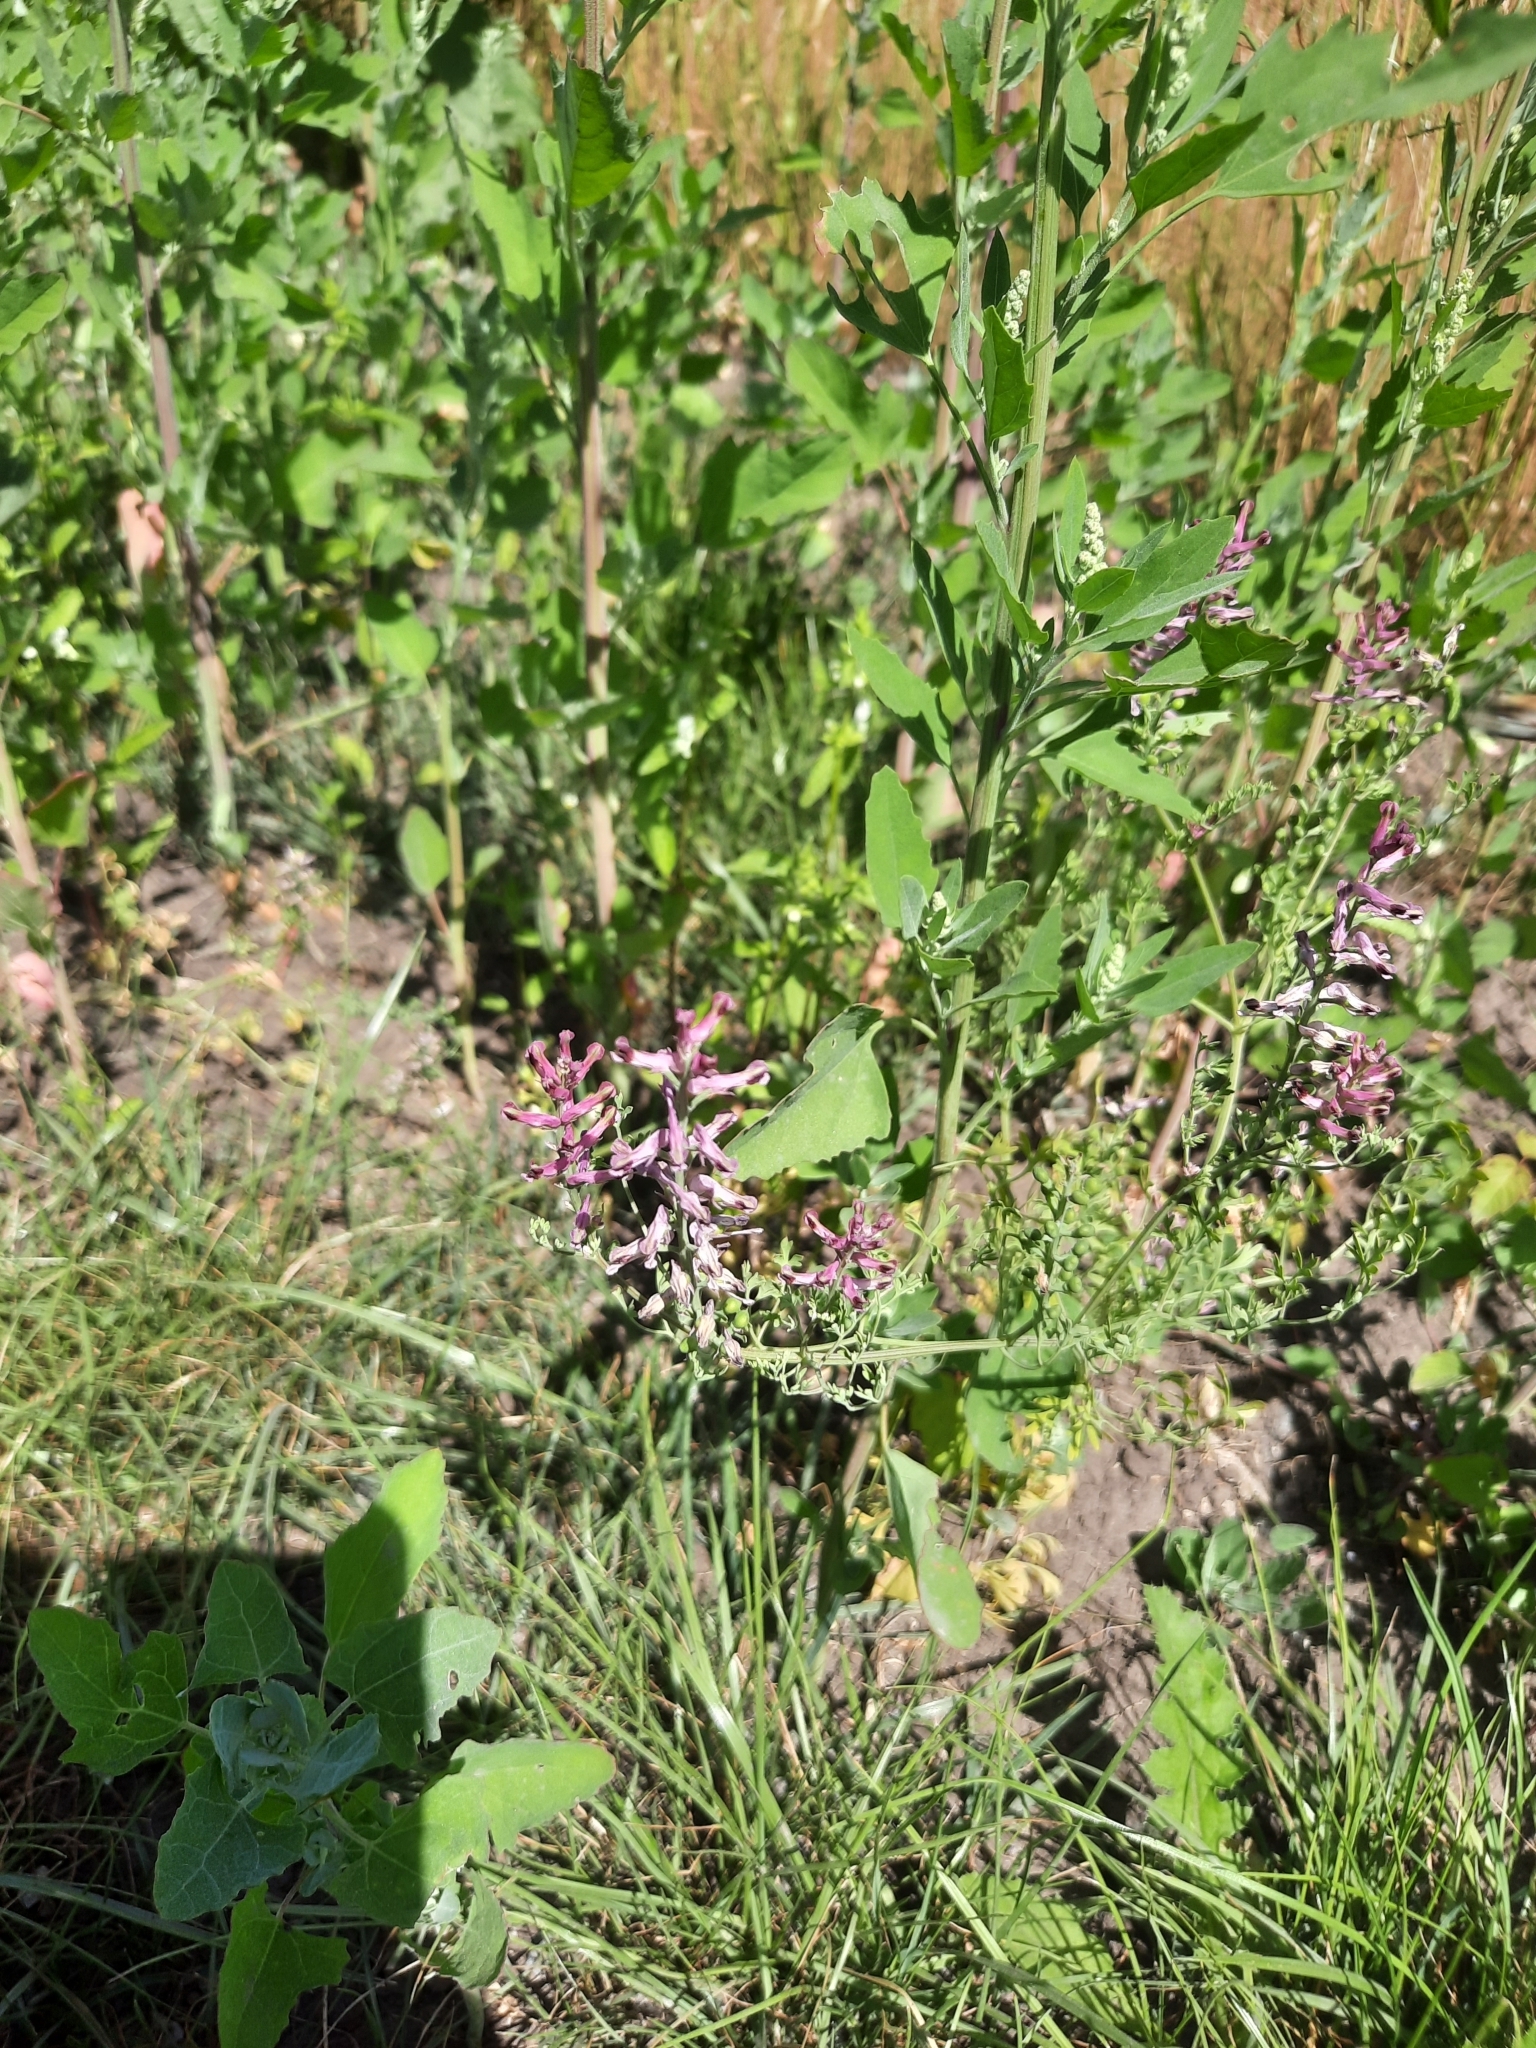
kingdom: Plantae
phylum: Tracheophyta
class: Magnoliopsida
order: Ranunculales
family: Papaveraceae
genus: Fumaria
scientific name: Fumaria officinalis
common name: Common fumitory
